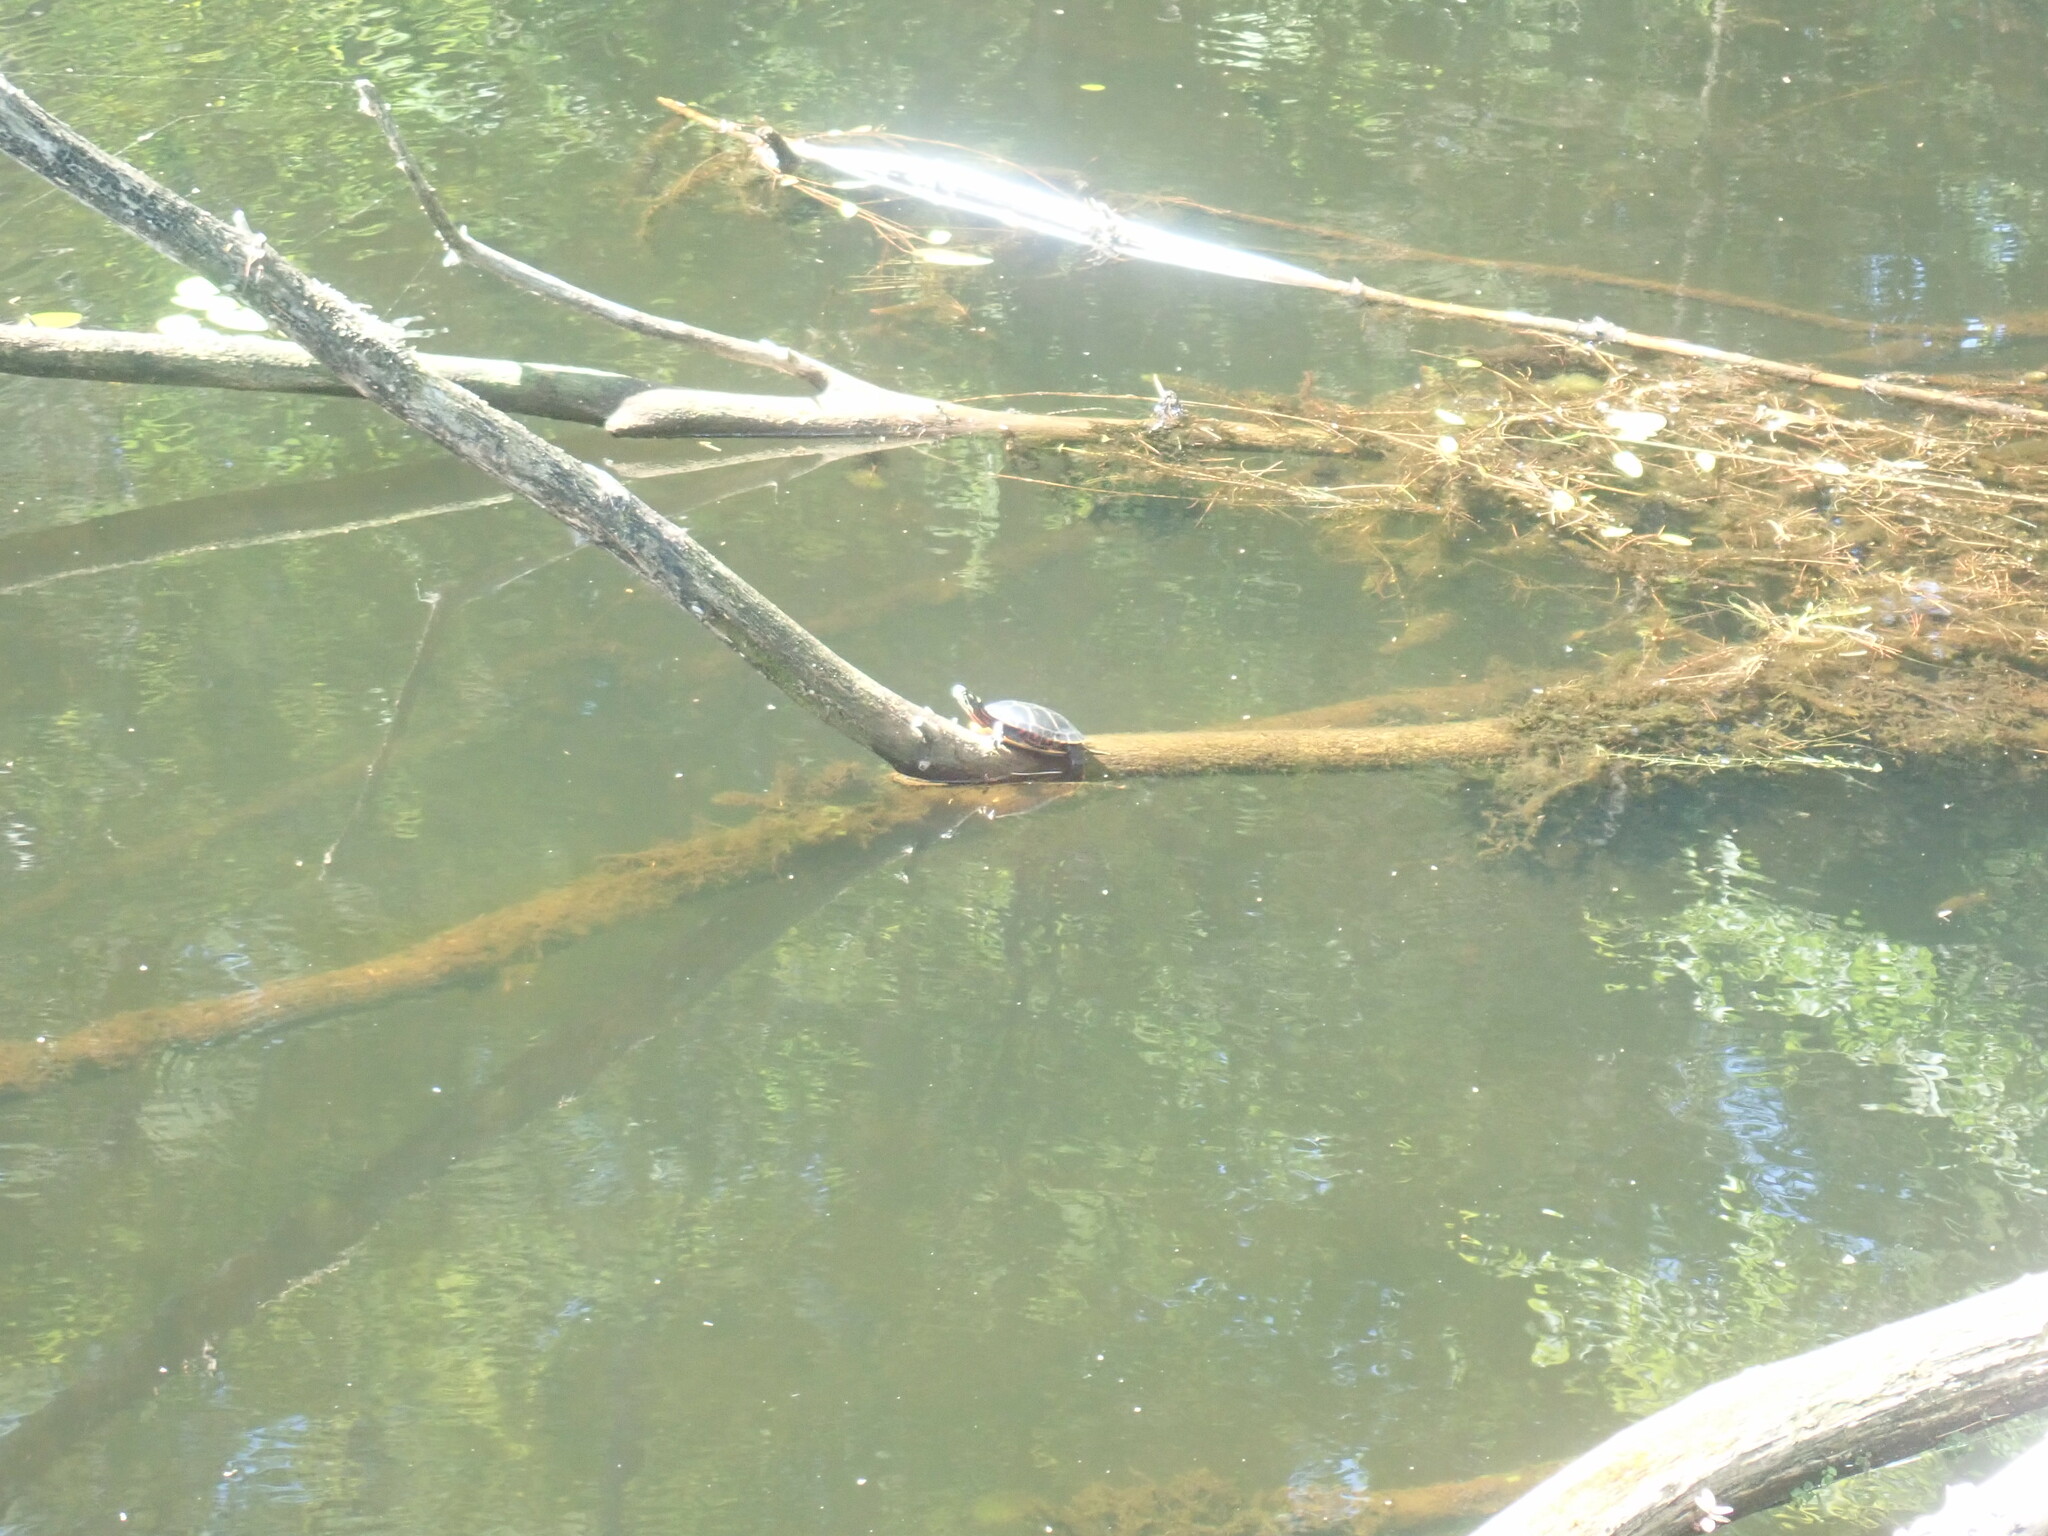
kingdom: Animalia
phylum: Chordata
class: Testudines
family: Emydidae
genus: Chrysemys
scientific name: Chrysemys picta
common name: Painted turtle
